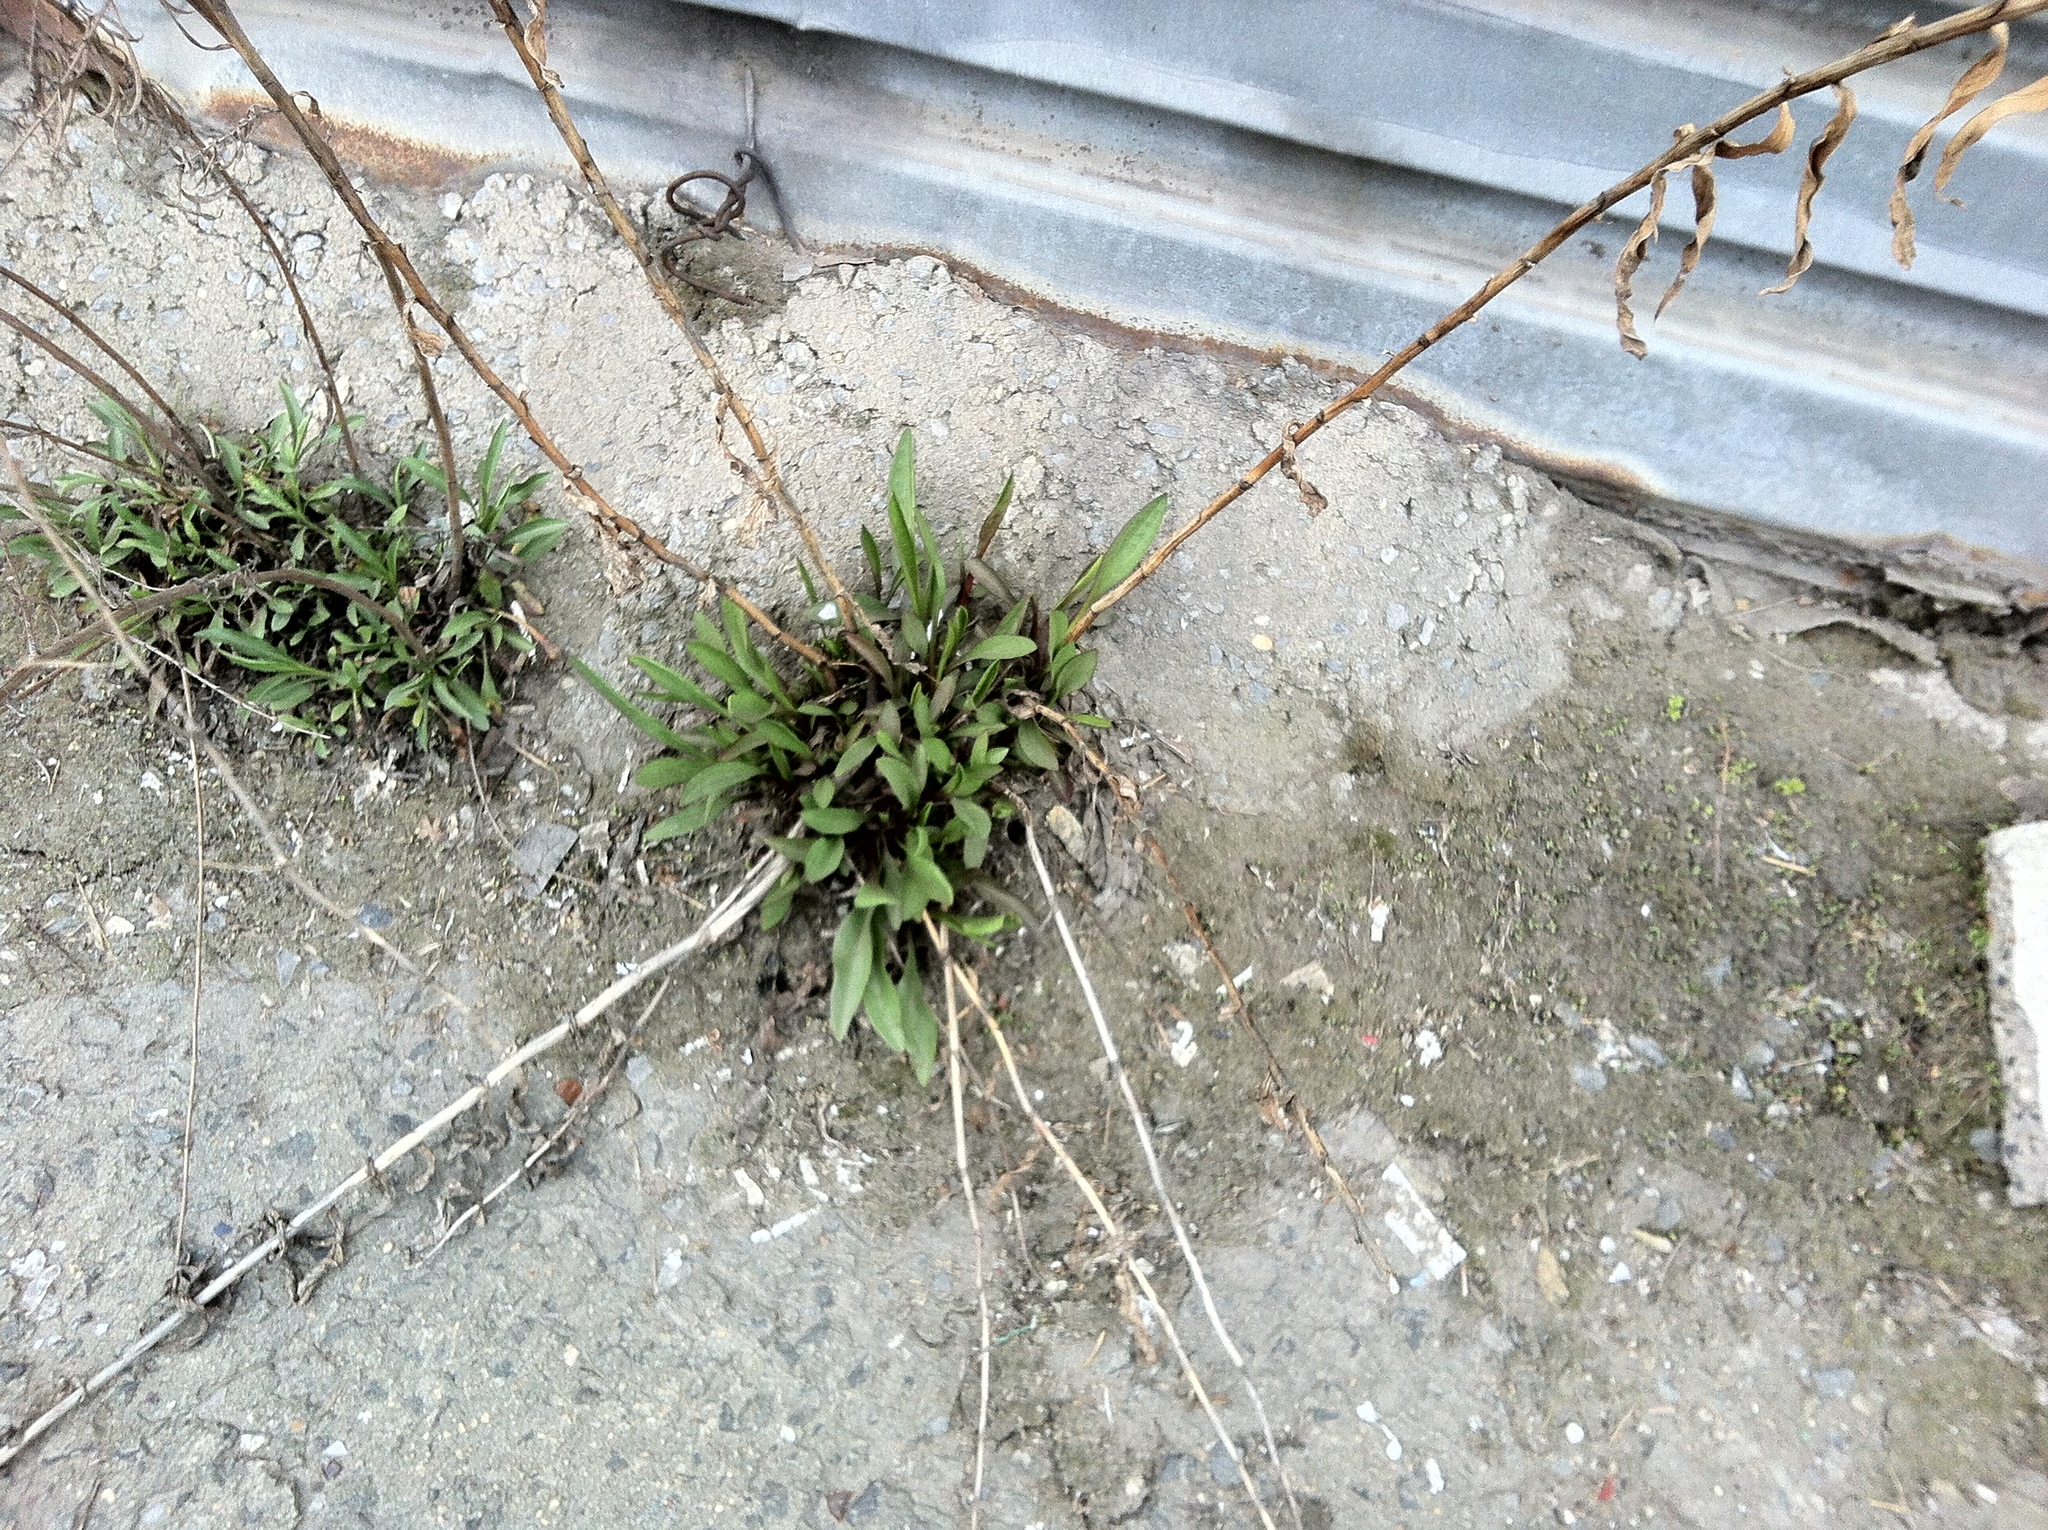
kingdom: Plantae
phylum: Tracheophyta
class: Magnoliopsida
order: Asterales
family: Asteraceae
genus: Solidago
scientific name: Solidago sempervirens
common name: Salt-marsh goldenrod
